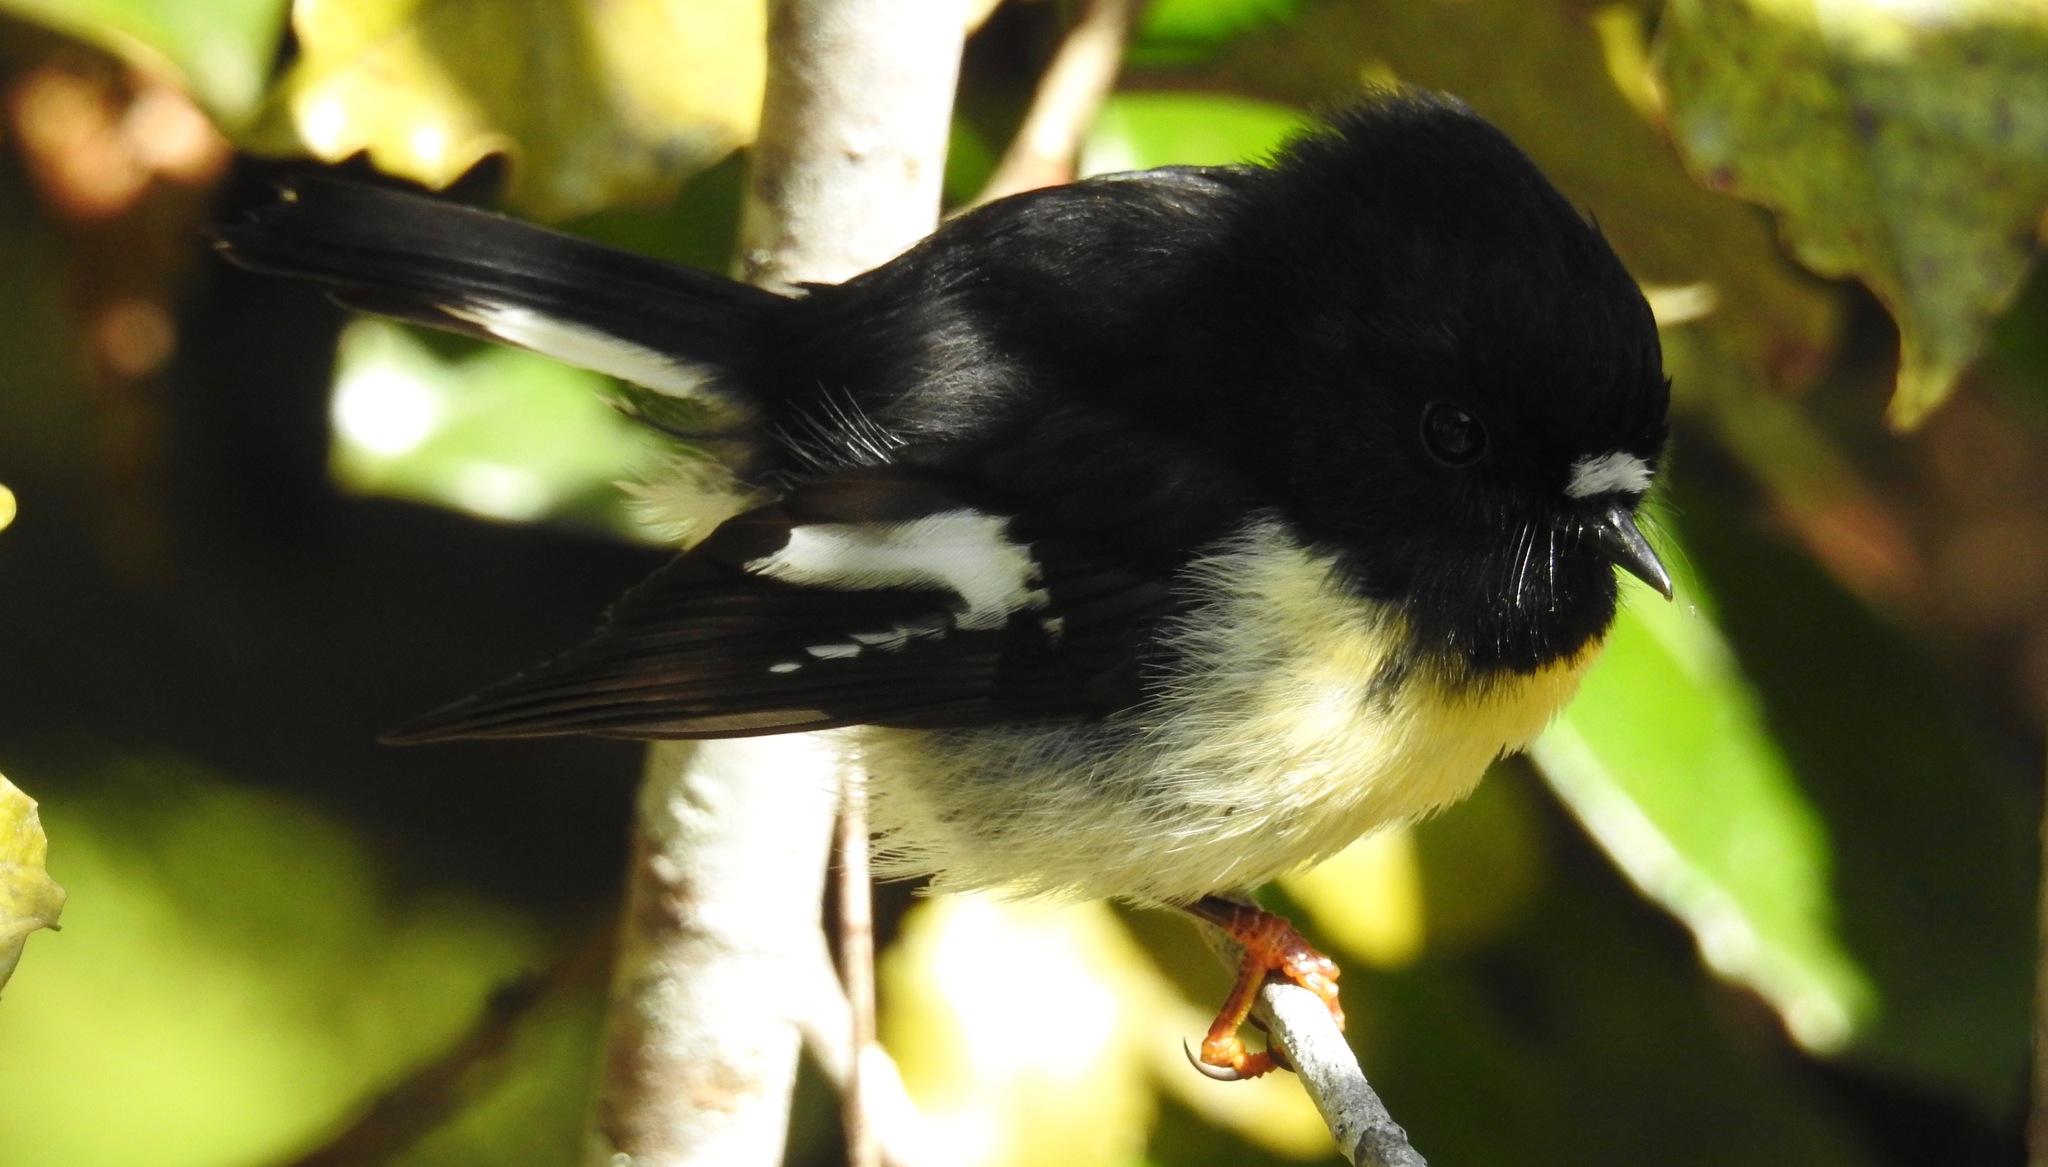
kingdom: Animalia
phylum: Chordata
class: Aves
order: Passeriformes
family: Petroicidae
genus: Petroica
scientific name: Petroica macrocephala
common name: Tomtit
